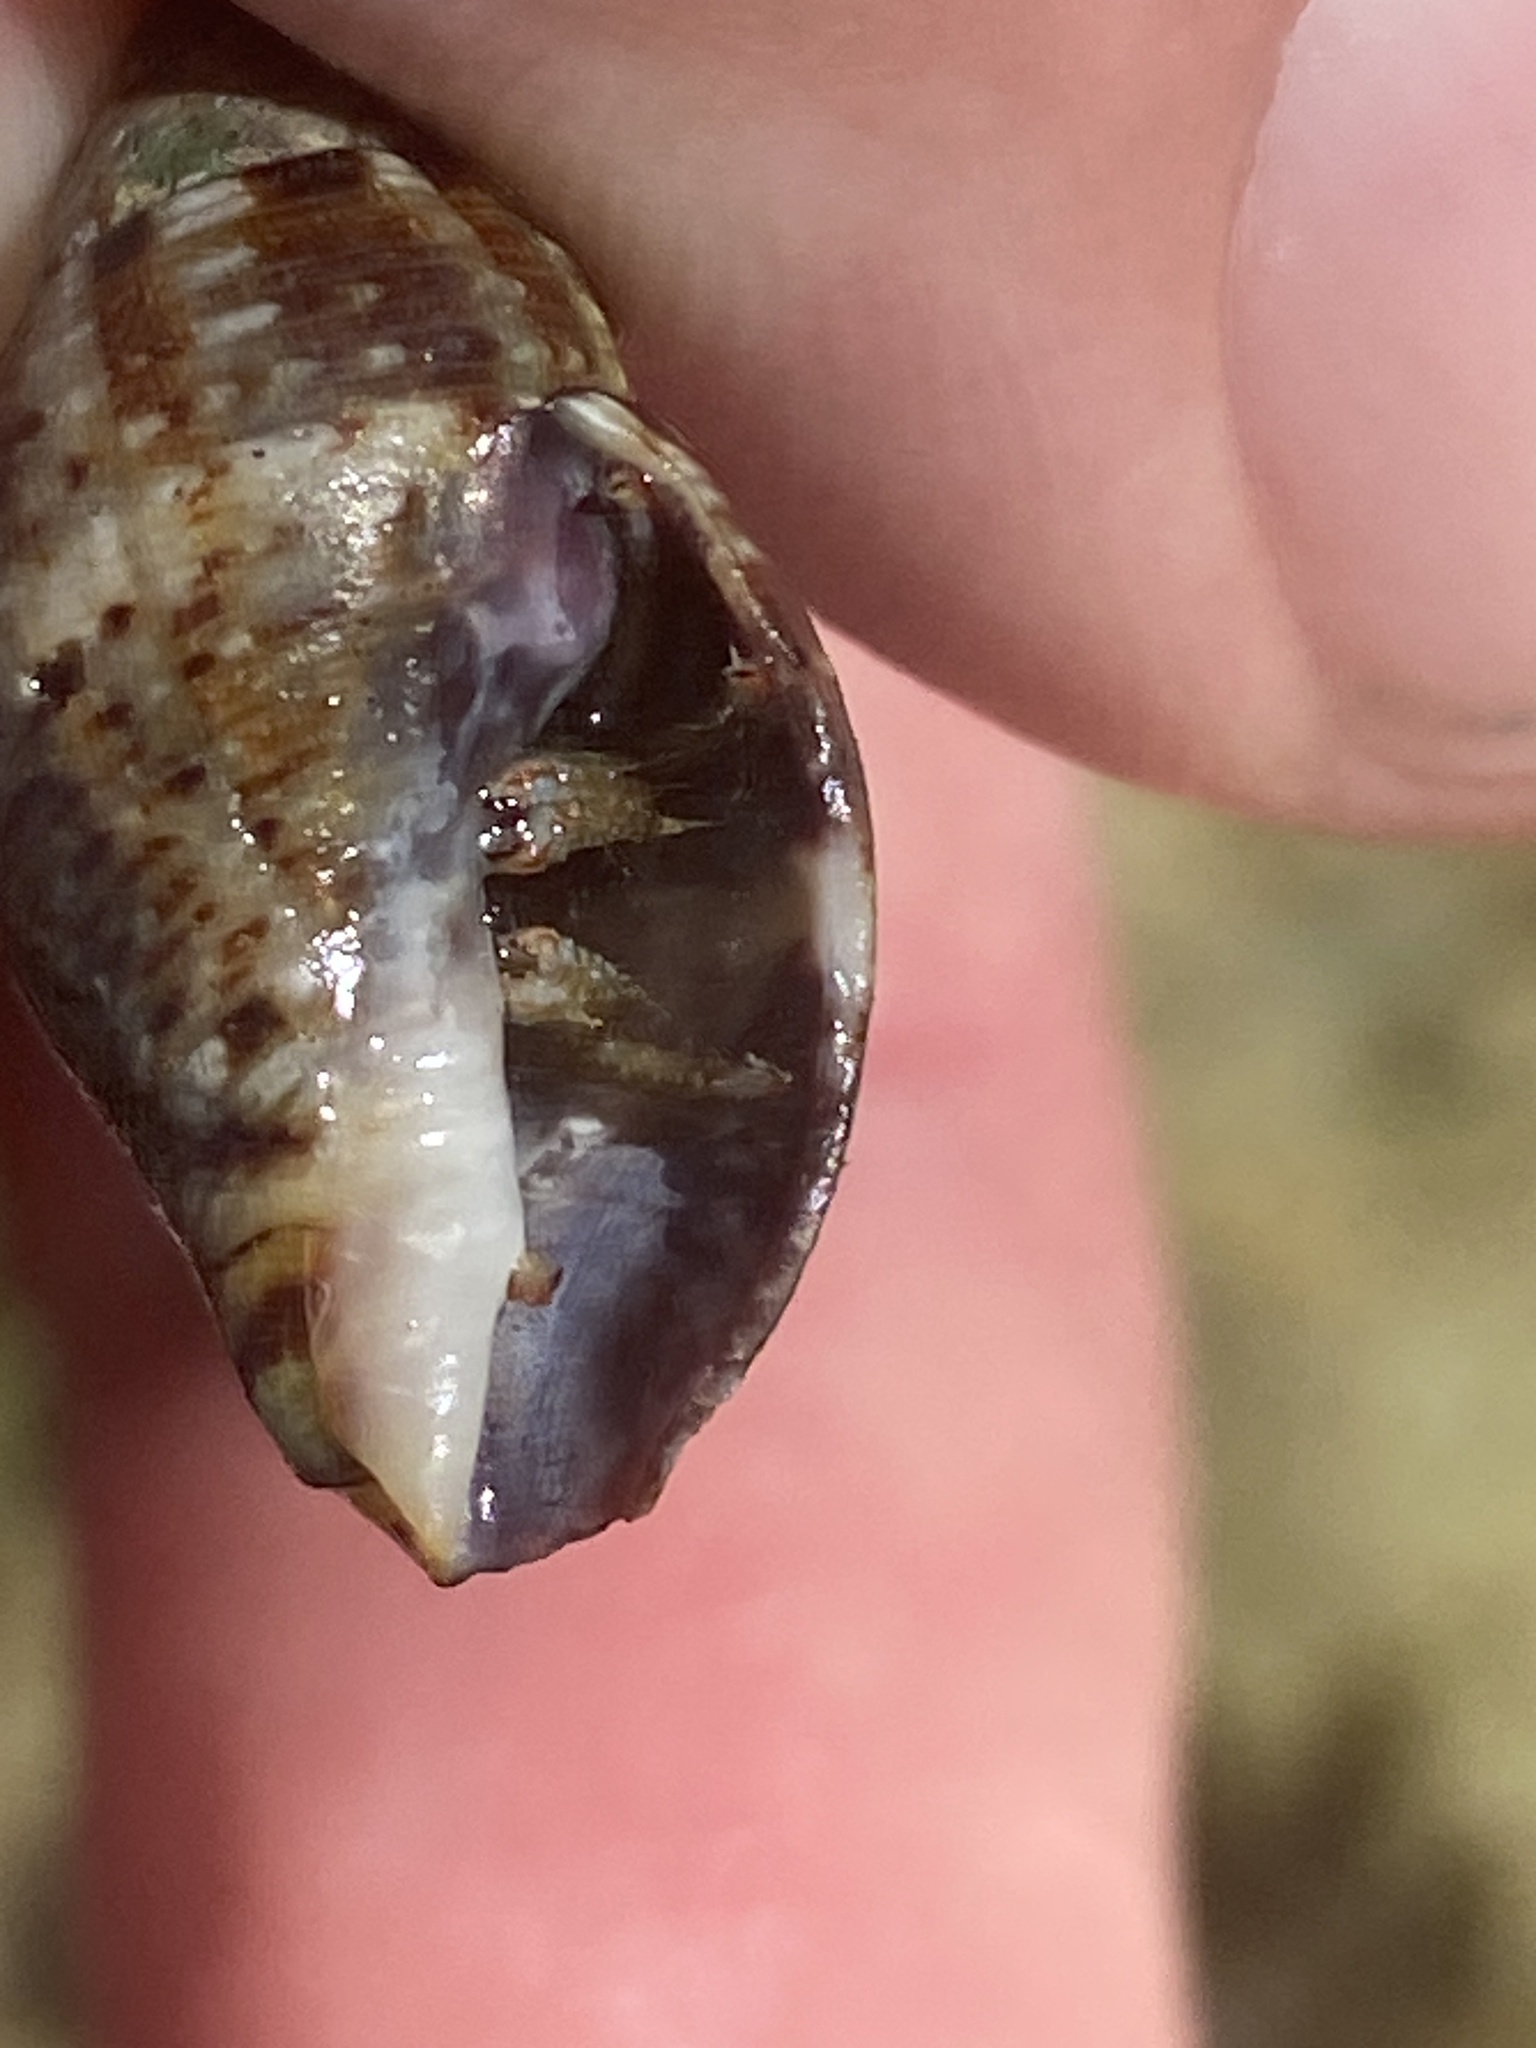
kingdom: Animalia
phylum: Arthropoda
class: Malacostraca
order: Decapoda
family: Diogenidae
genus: Clibanarius
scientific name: Clibanarius erythropus
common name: Hermit crab
